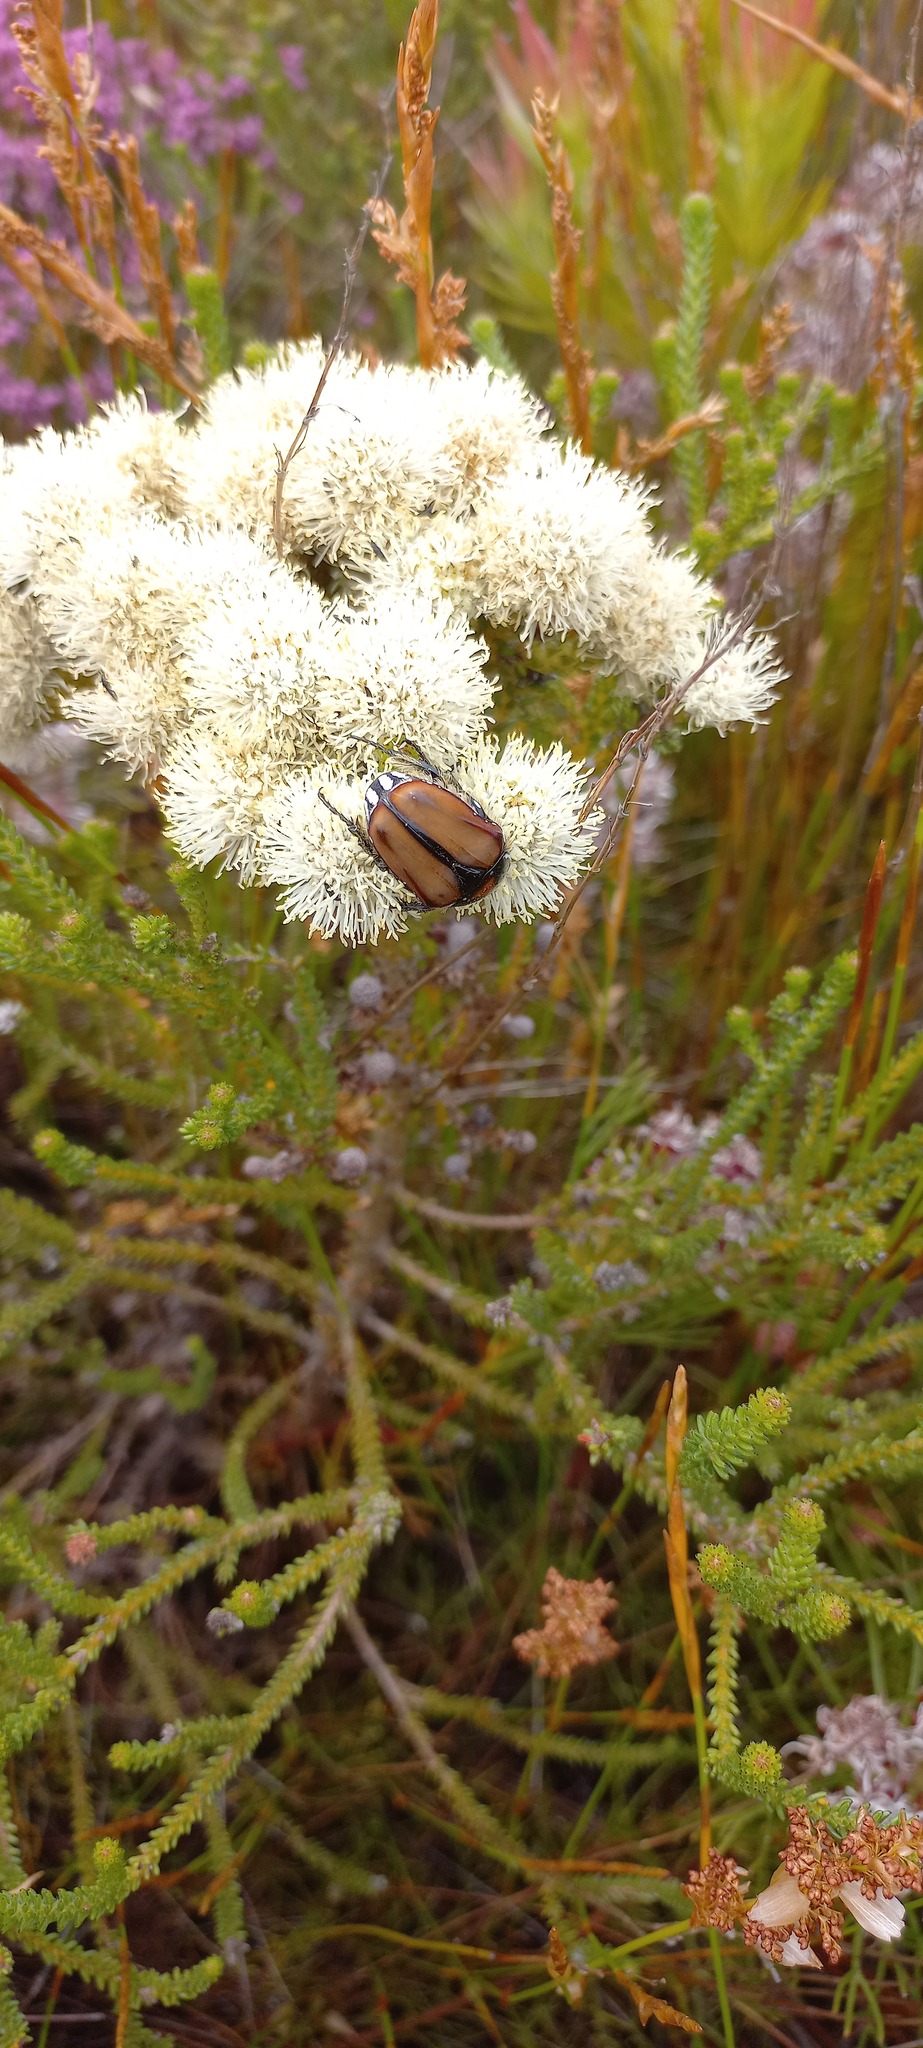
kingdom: Animalia
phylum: Arthropoda
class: Insecta
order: Coleoptera
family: Scarabaeidae
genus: Trichostetha
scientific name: Trichostetha signata
